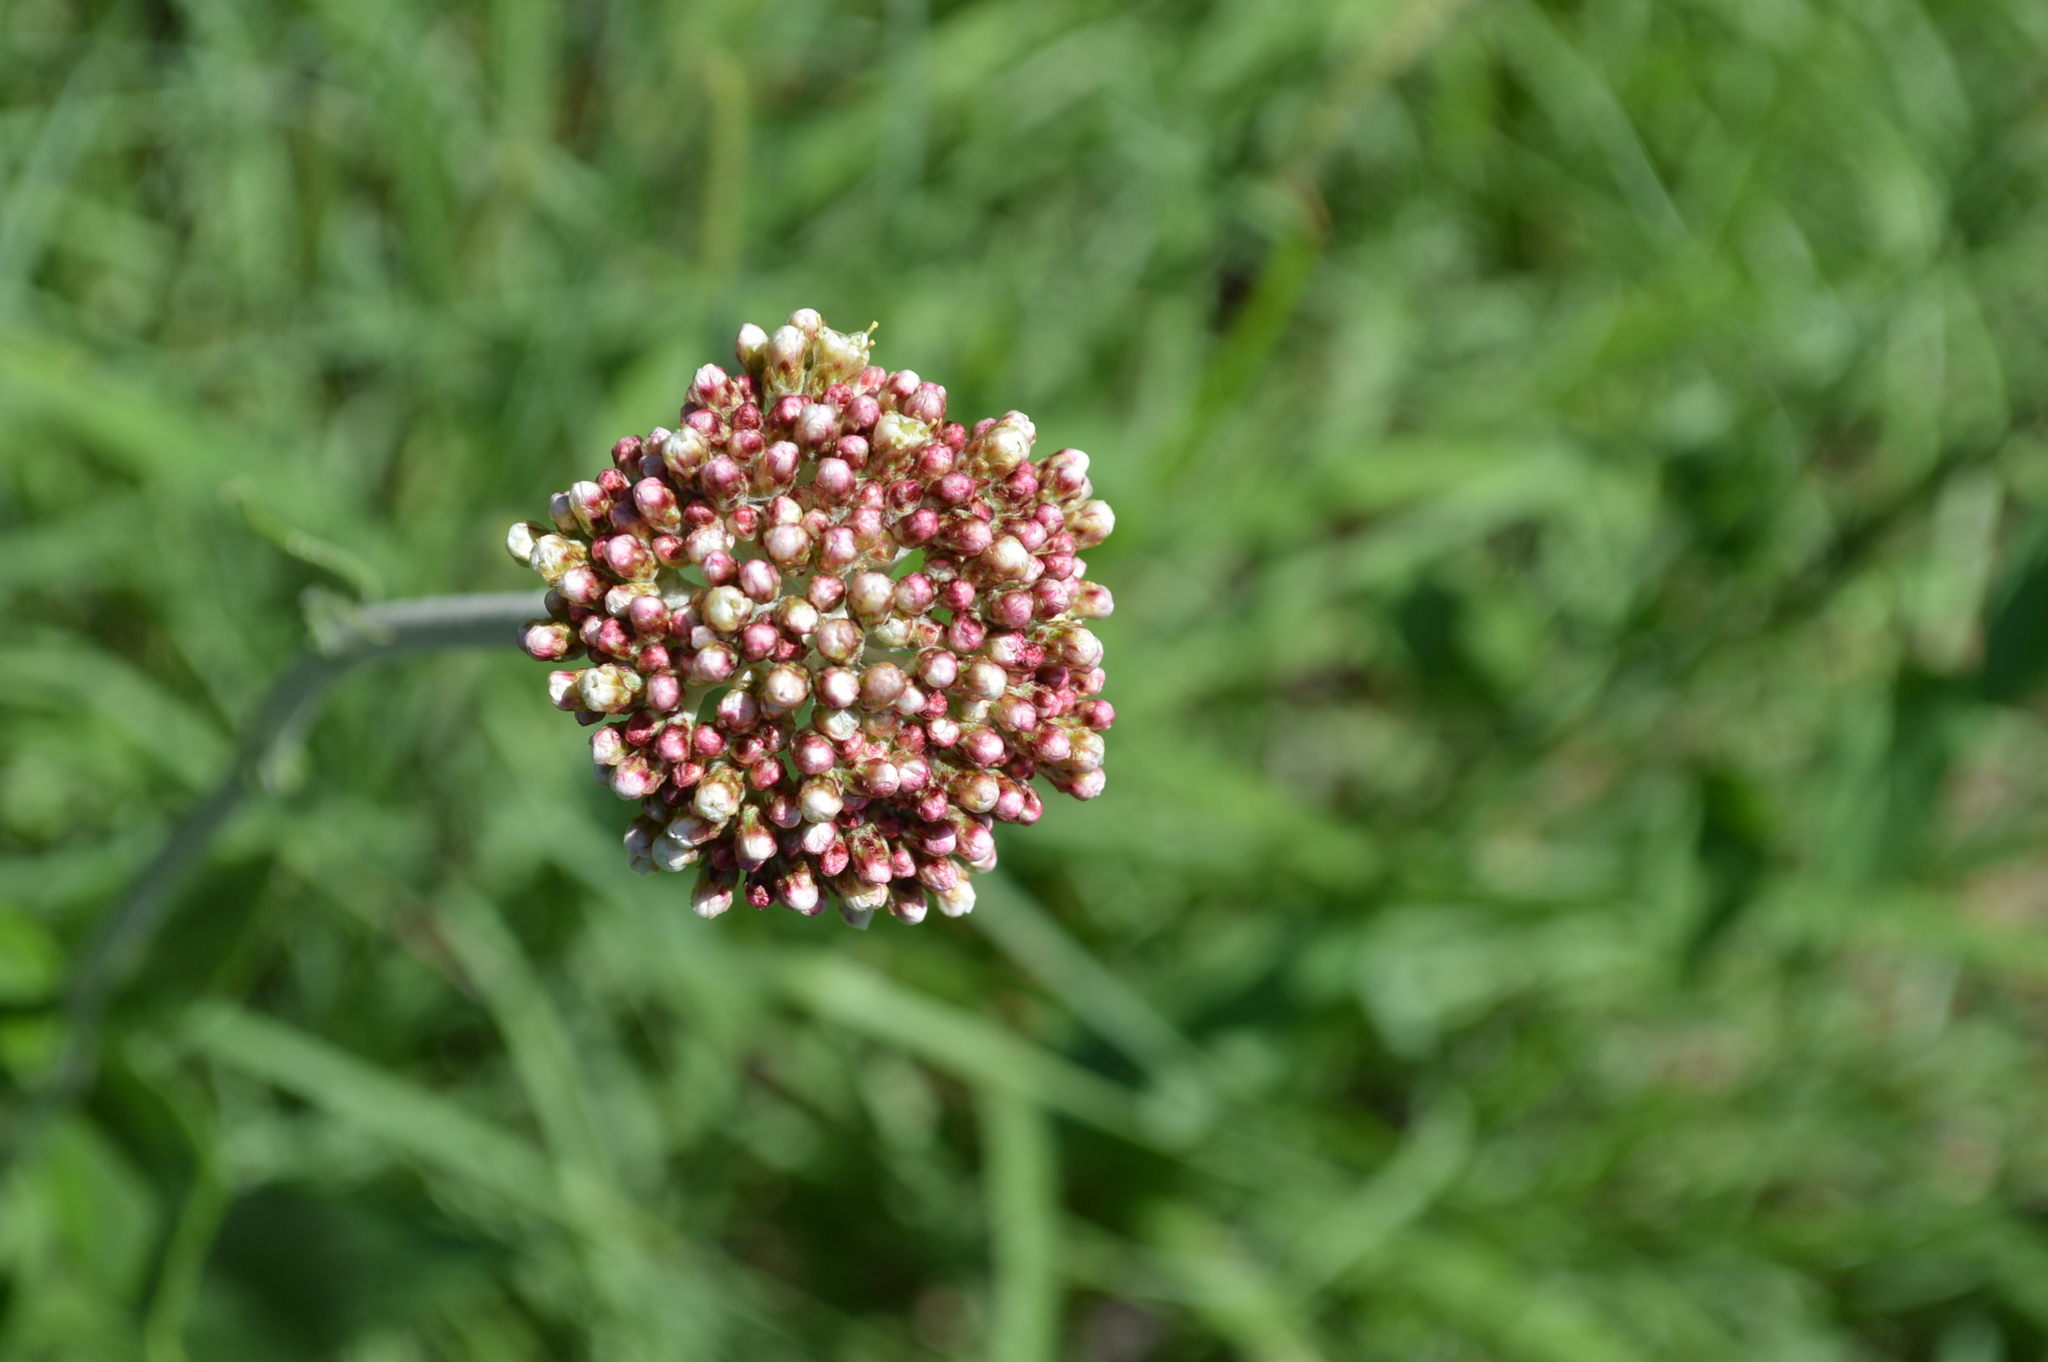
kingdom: Plantae
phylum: Tracheophyta
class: Magnoliopsida
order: Asterales
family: Asteraceae
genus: Helichrysum
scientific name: Helichrysum nudifolium
